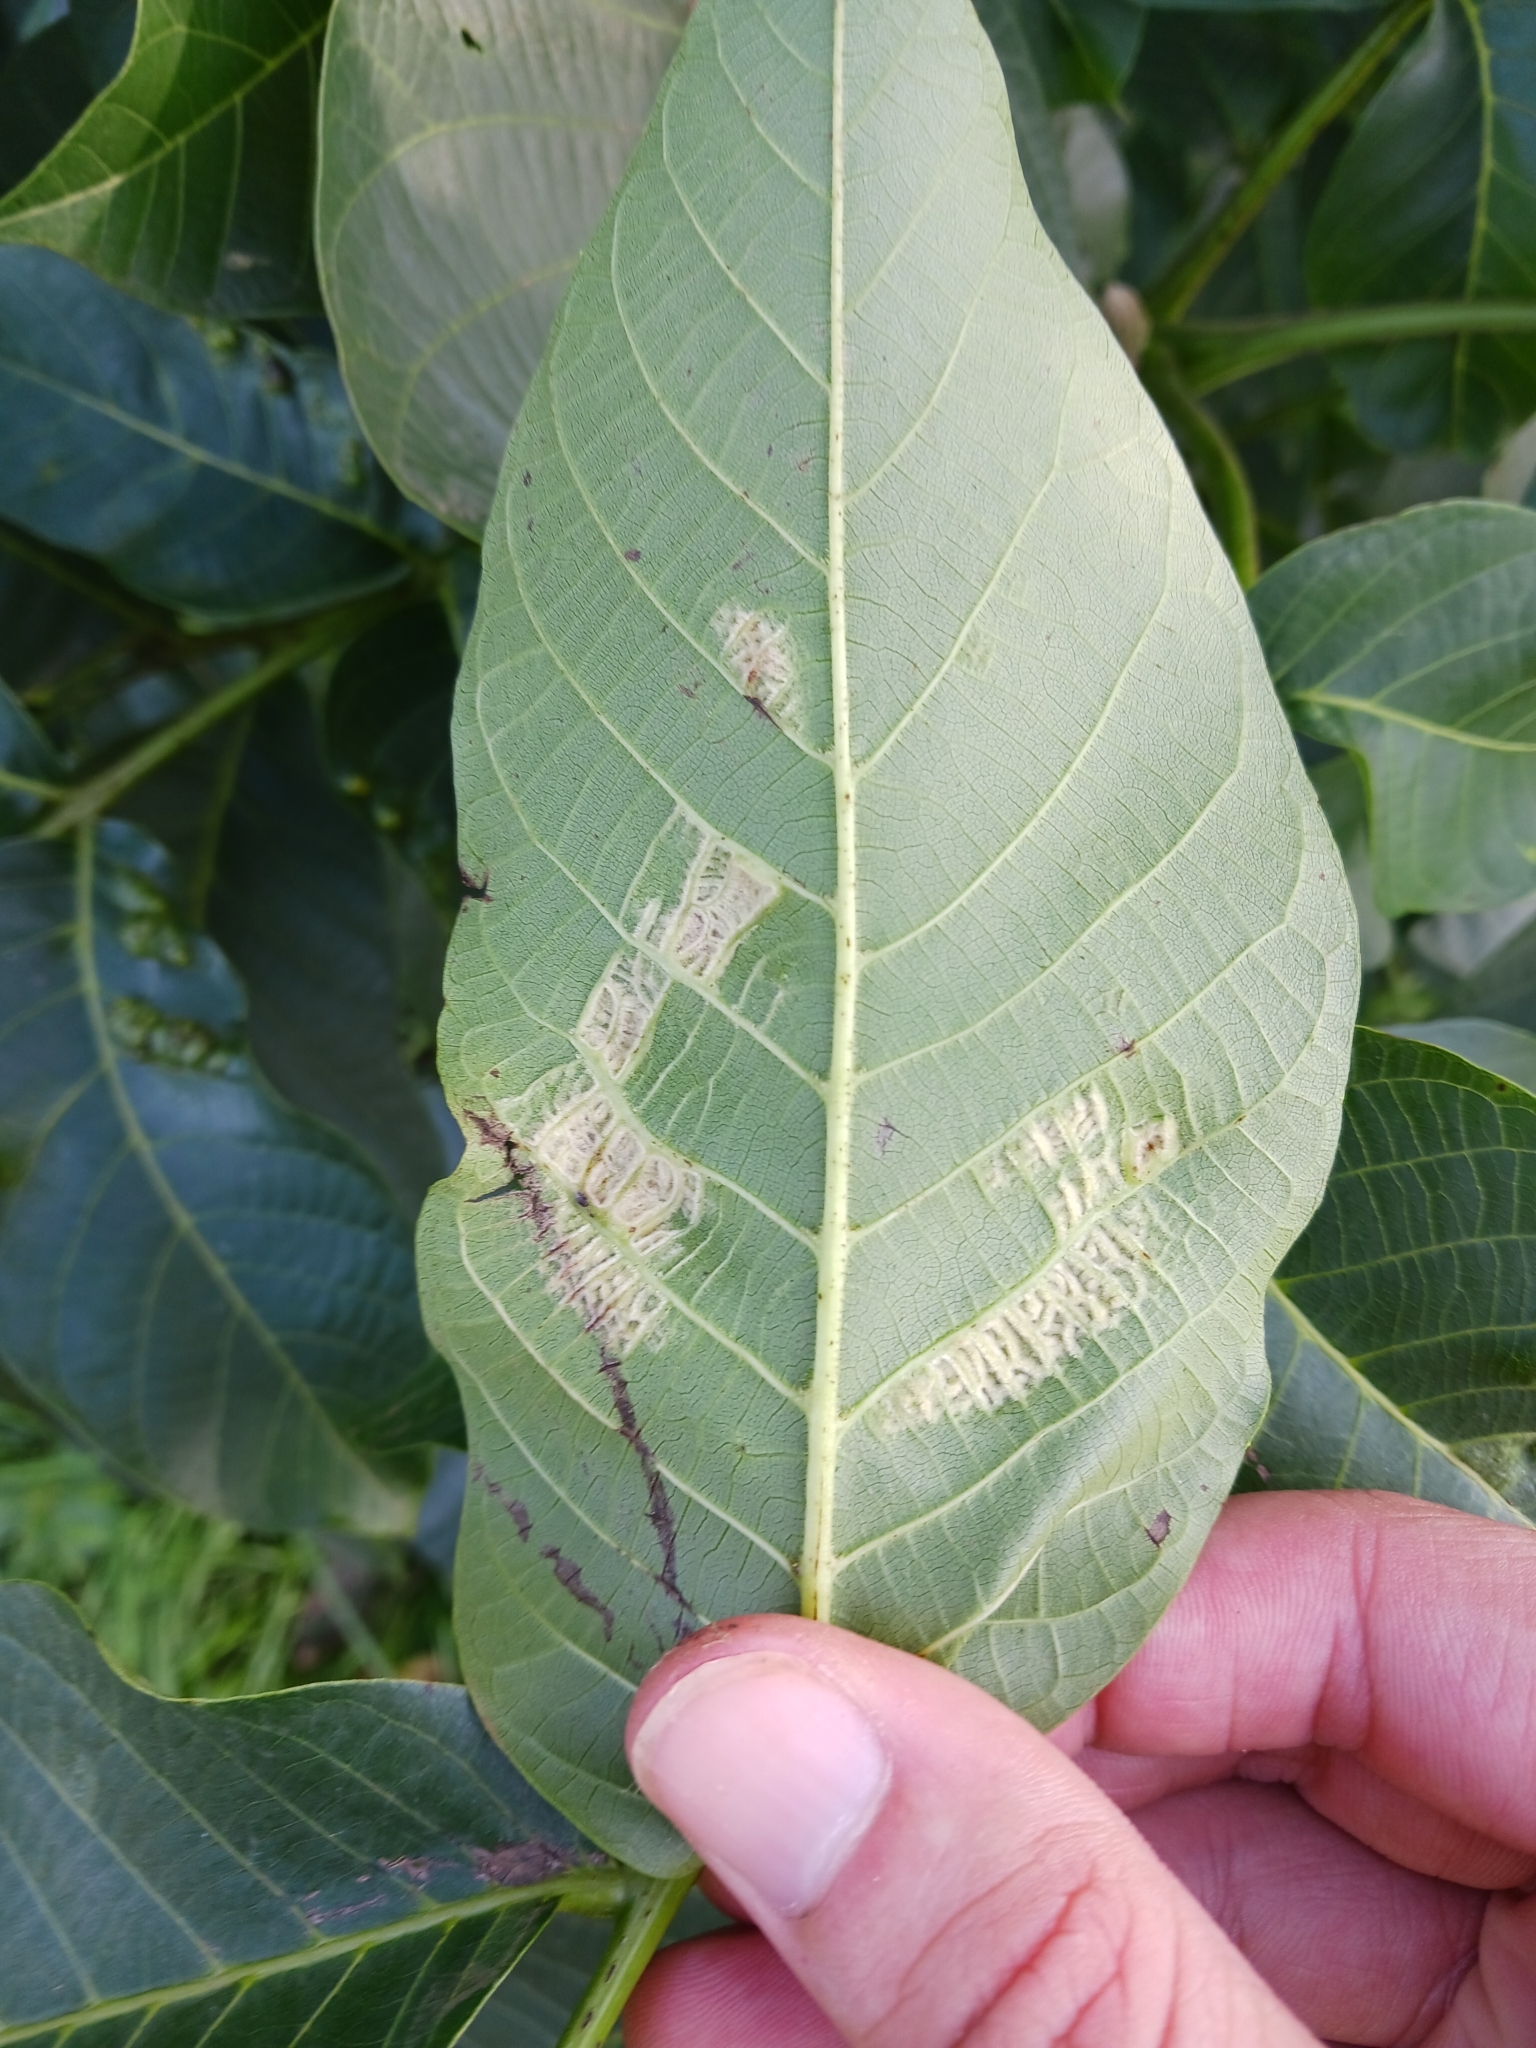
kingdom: Animalia
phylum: Arthropoda
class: Arachnida
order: Trombidiformes
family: Eriophyidae
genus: Aceria
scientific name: Aceria erinea
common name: Persian walnut erineum mite
